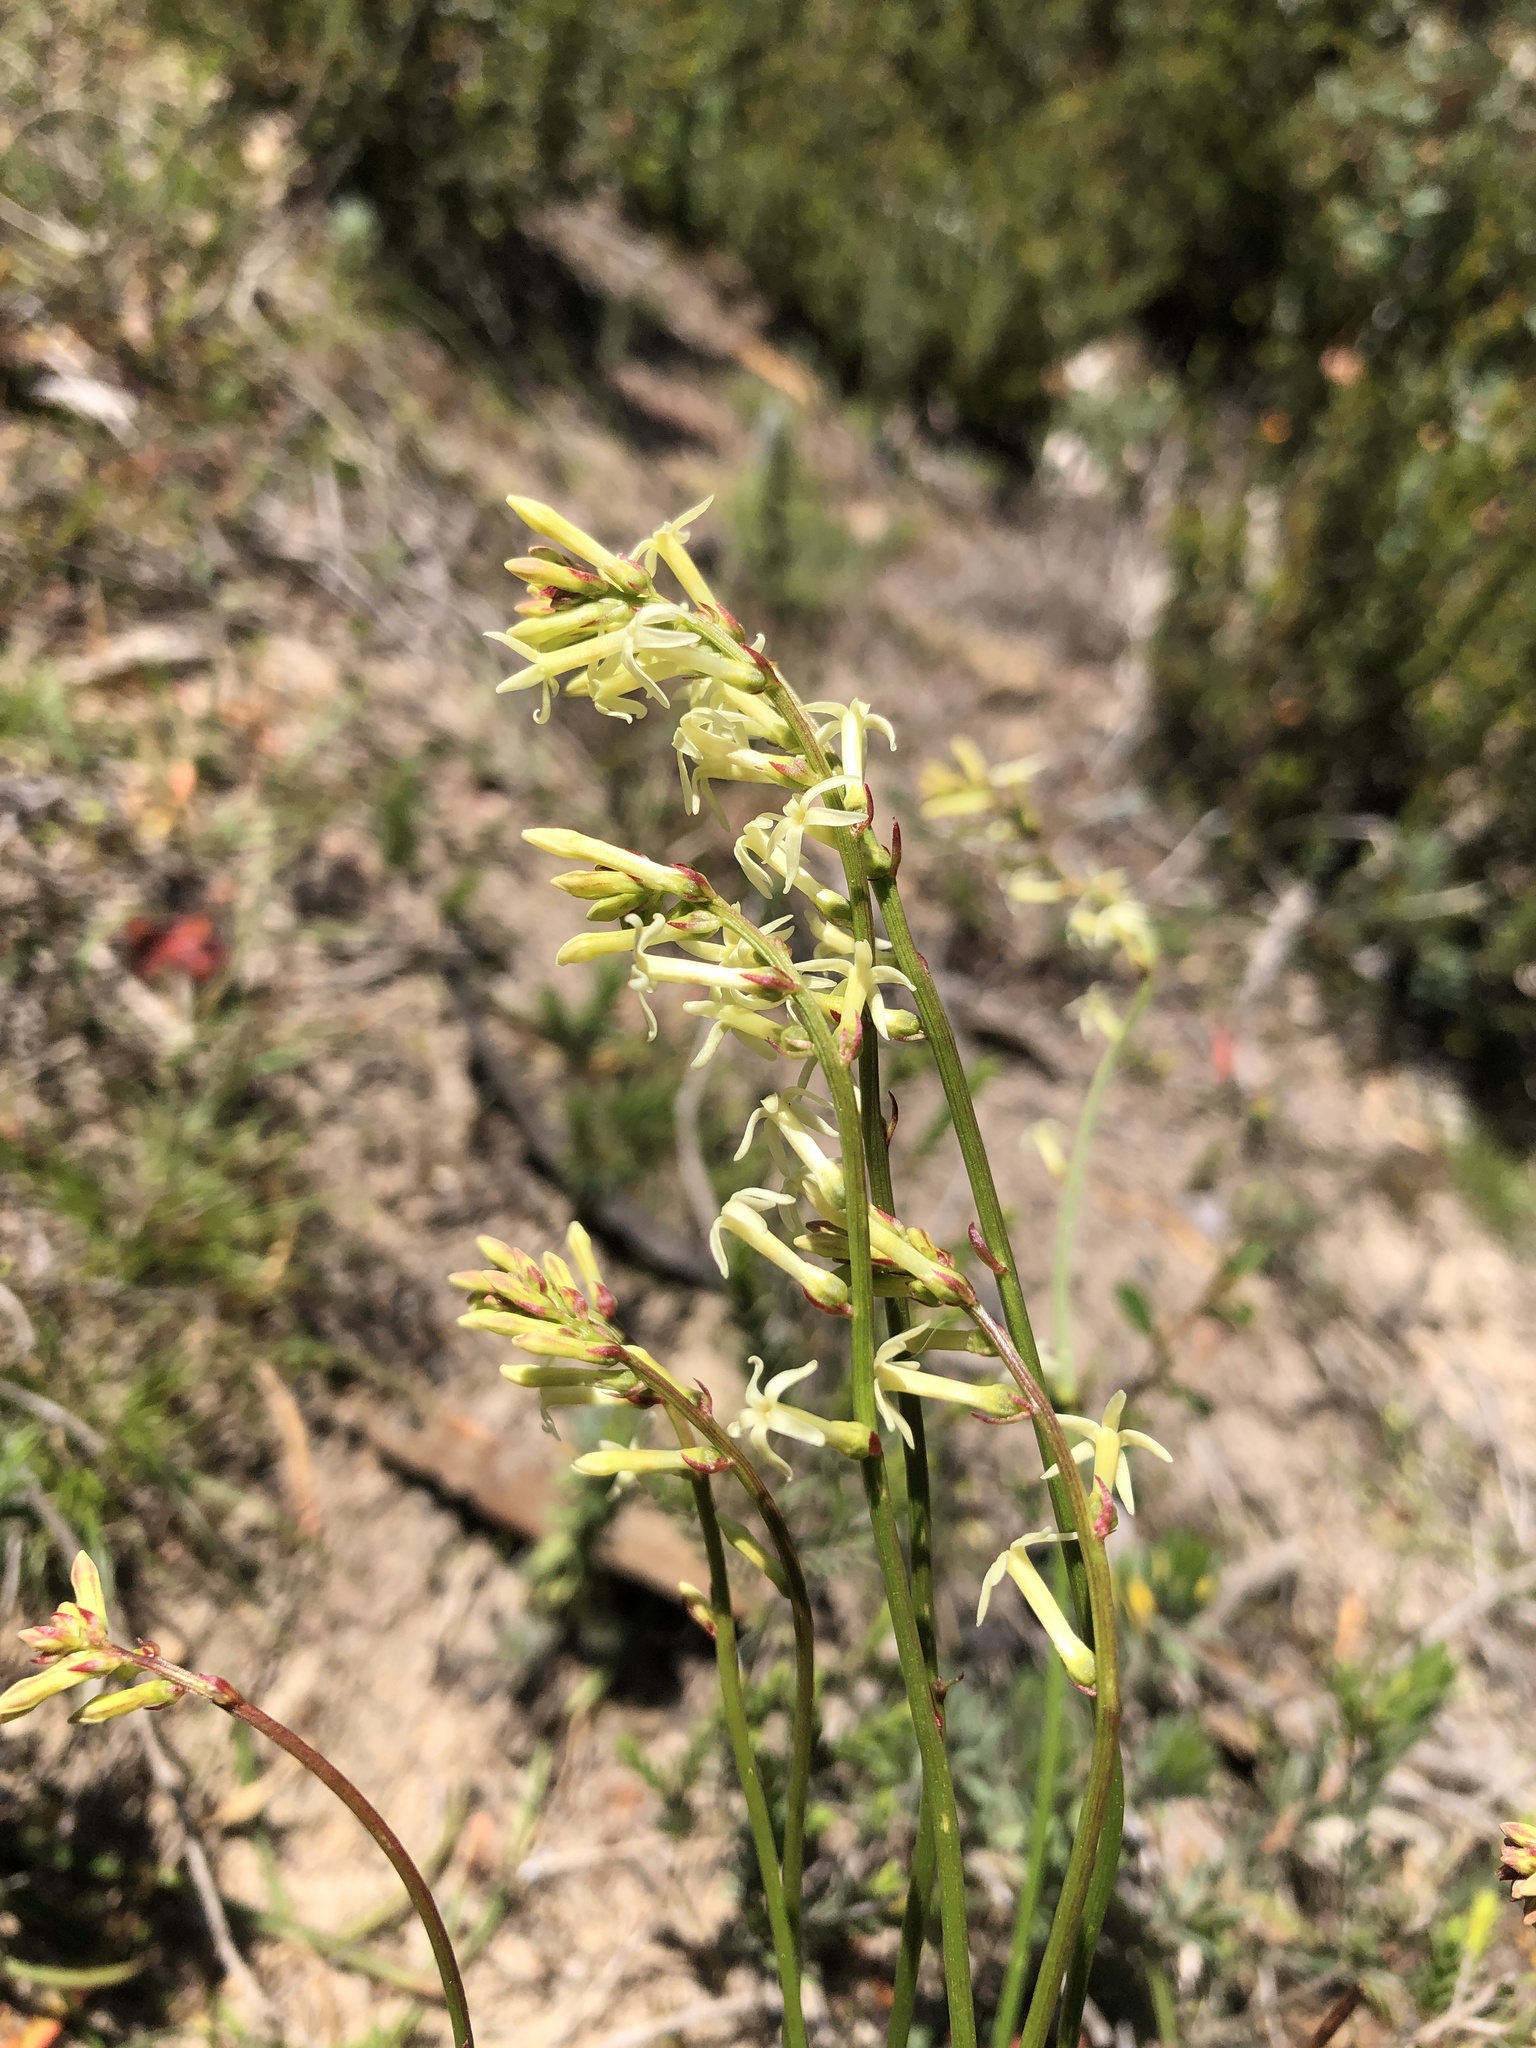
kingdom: Plantae
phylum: Tracheophyta
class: Magnoliopsida
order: Celastrales
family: Celastraceae
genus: Stackhousia
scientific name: Stackhousia monogyna
